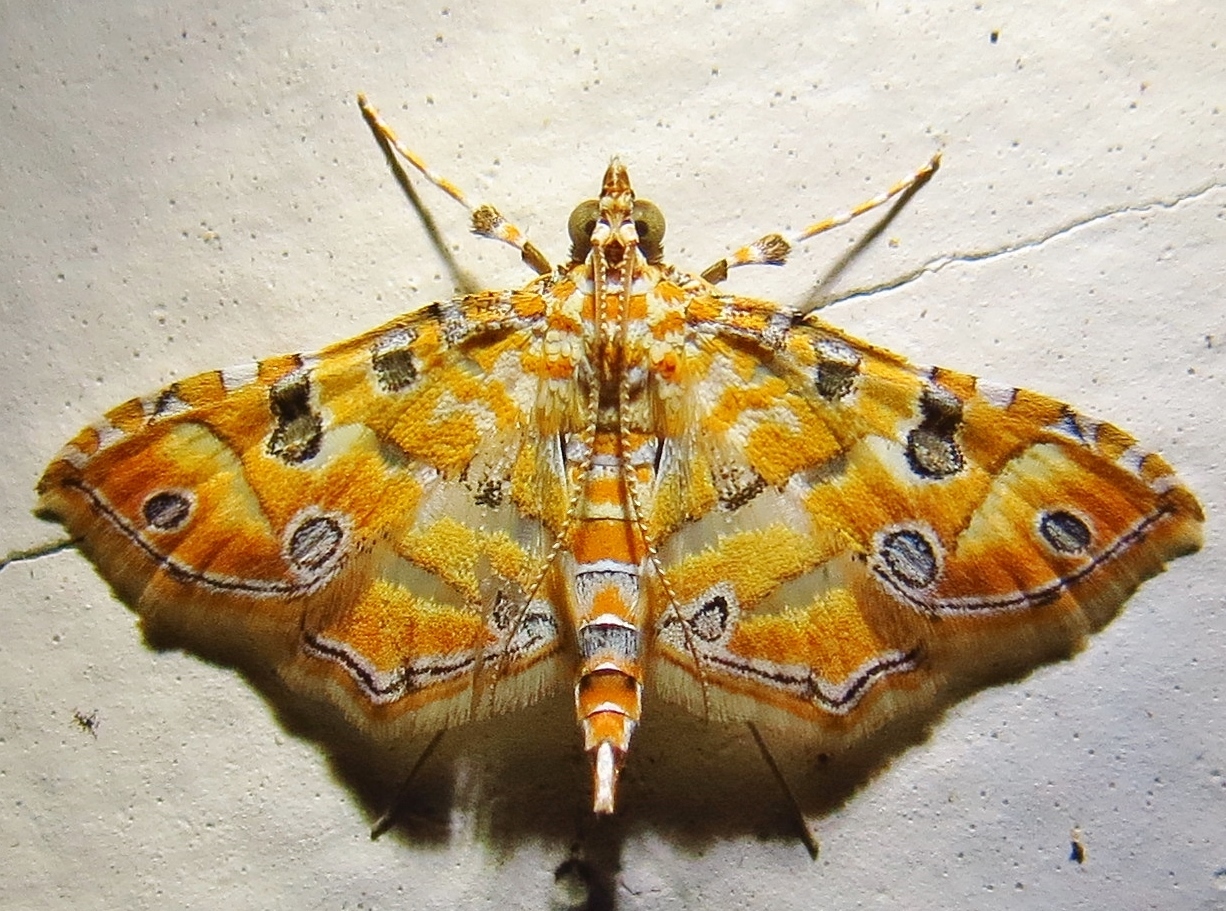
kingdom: Animalia
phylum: Arthropoda
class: Insecta
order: Lepidoptera
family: Crambidae
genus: Ommatospila
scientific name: Ommatospila narcaeusalis
